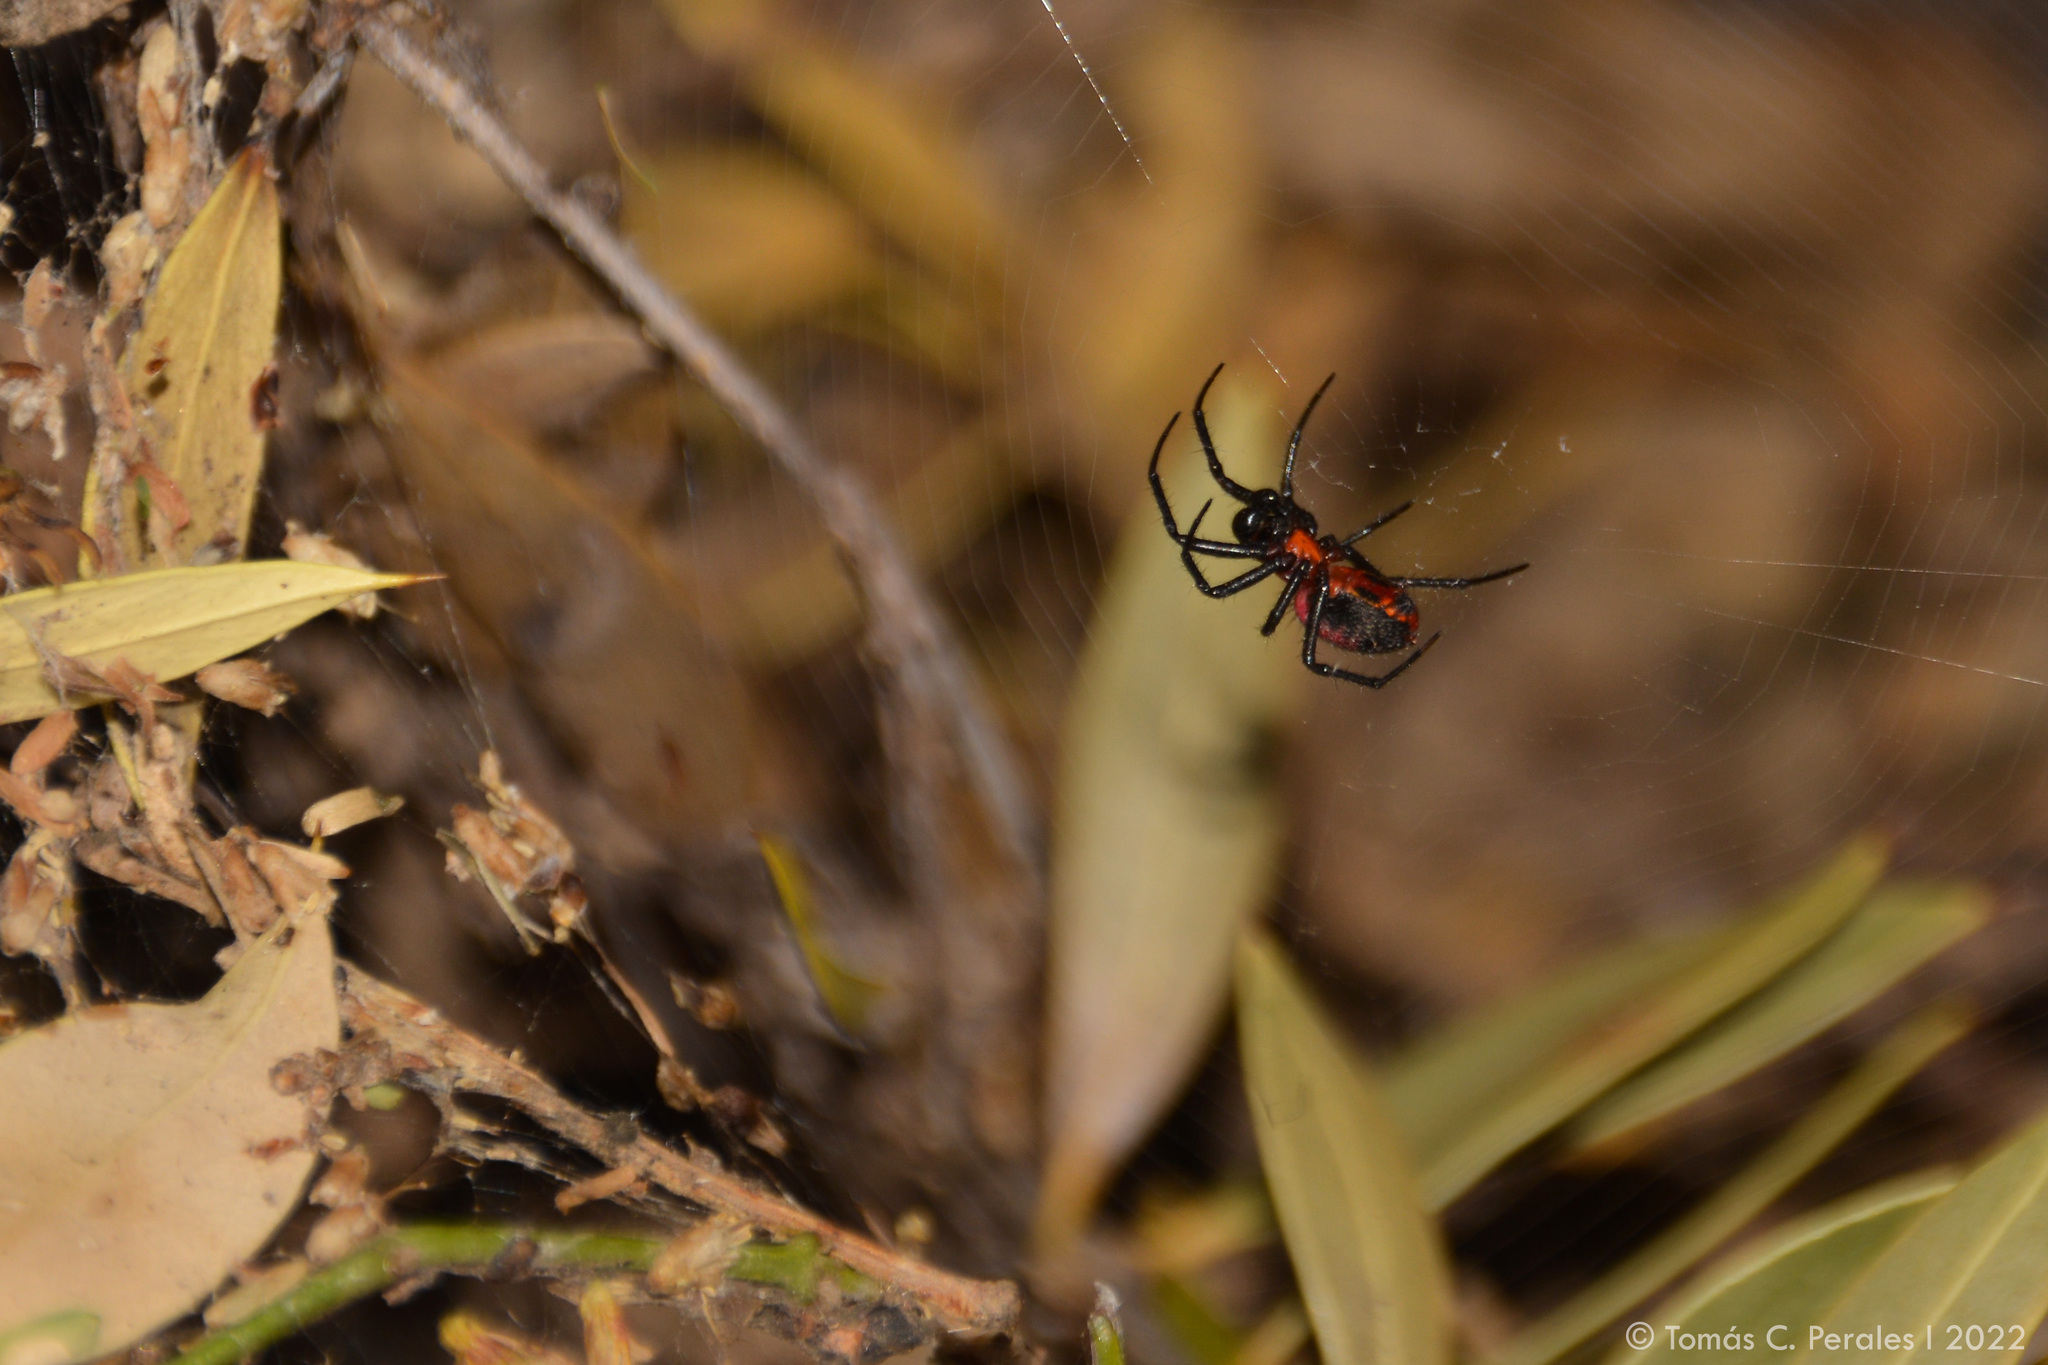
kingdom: Animalia
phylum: Arthropoda
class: Arachnida
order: Araneae
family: Araneidae
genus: Alpaida
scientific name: Alpaida carminea
